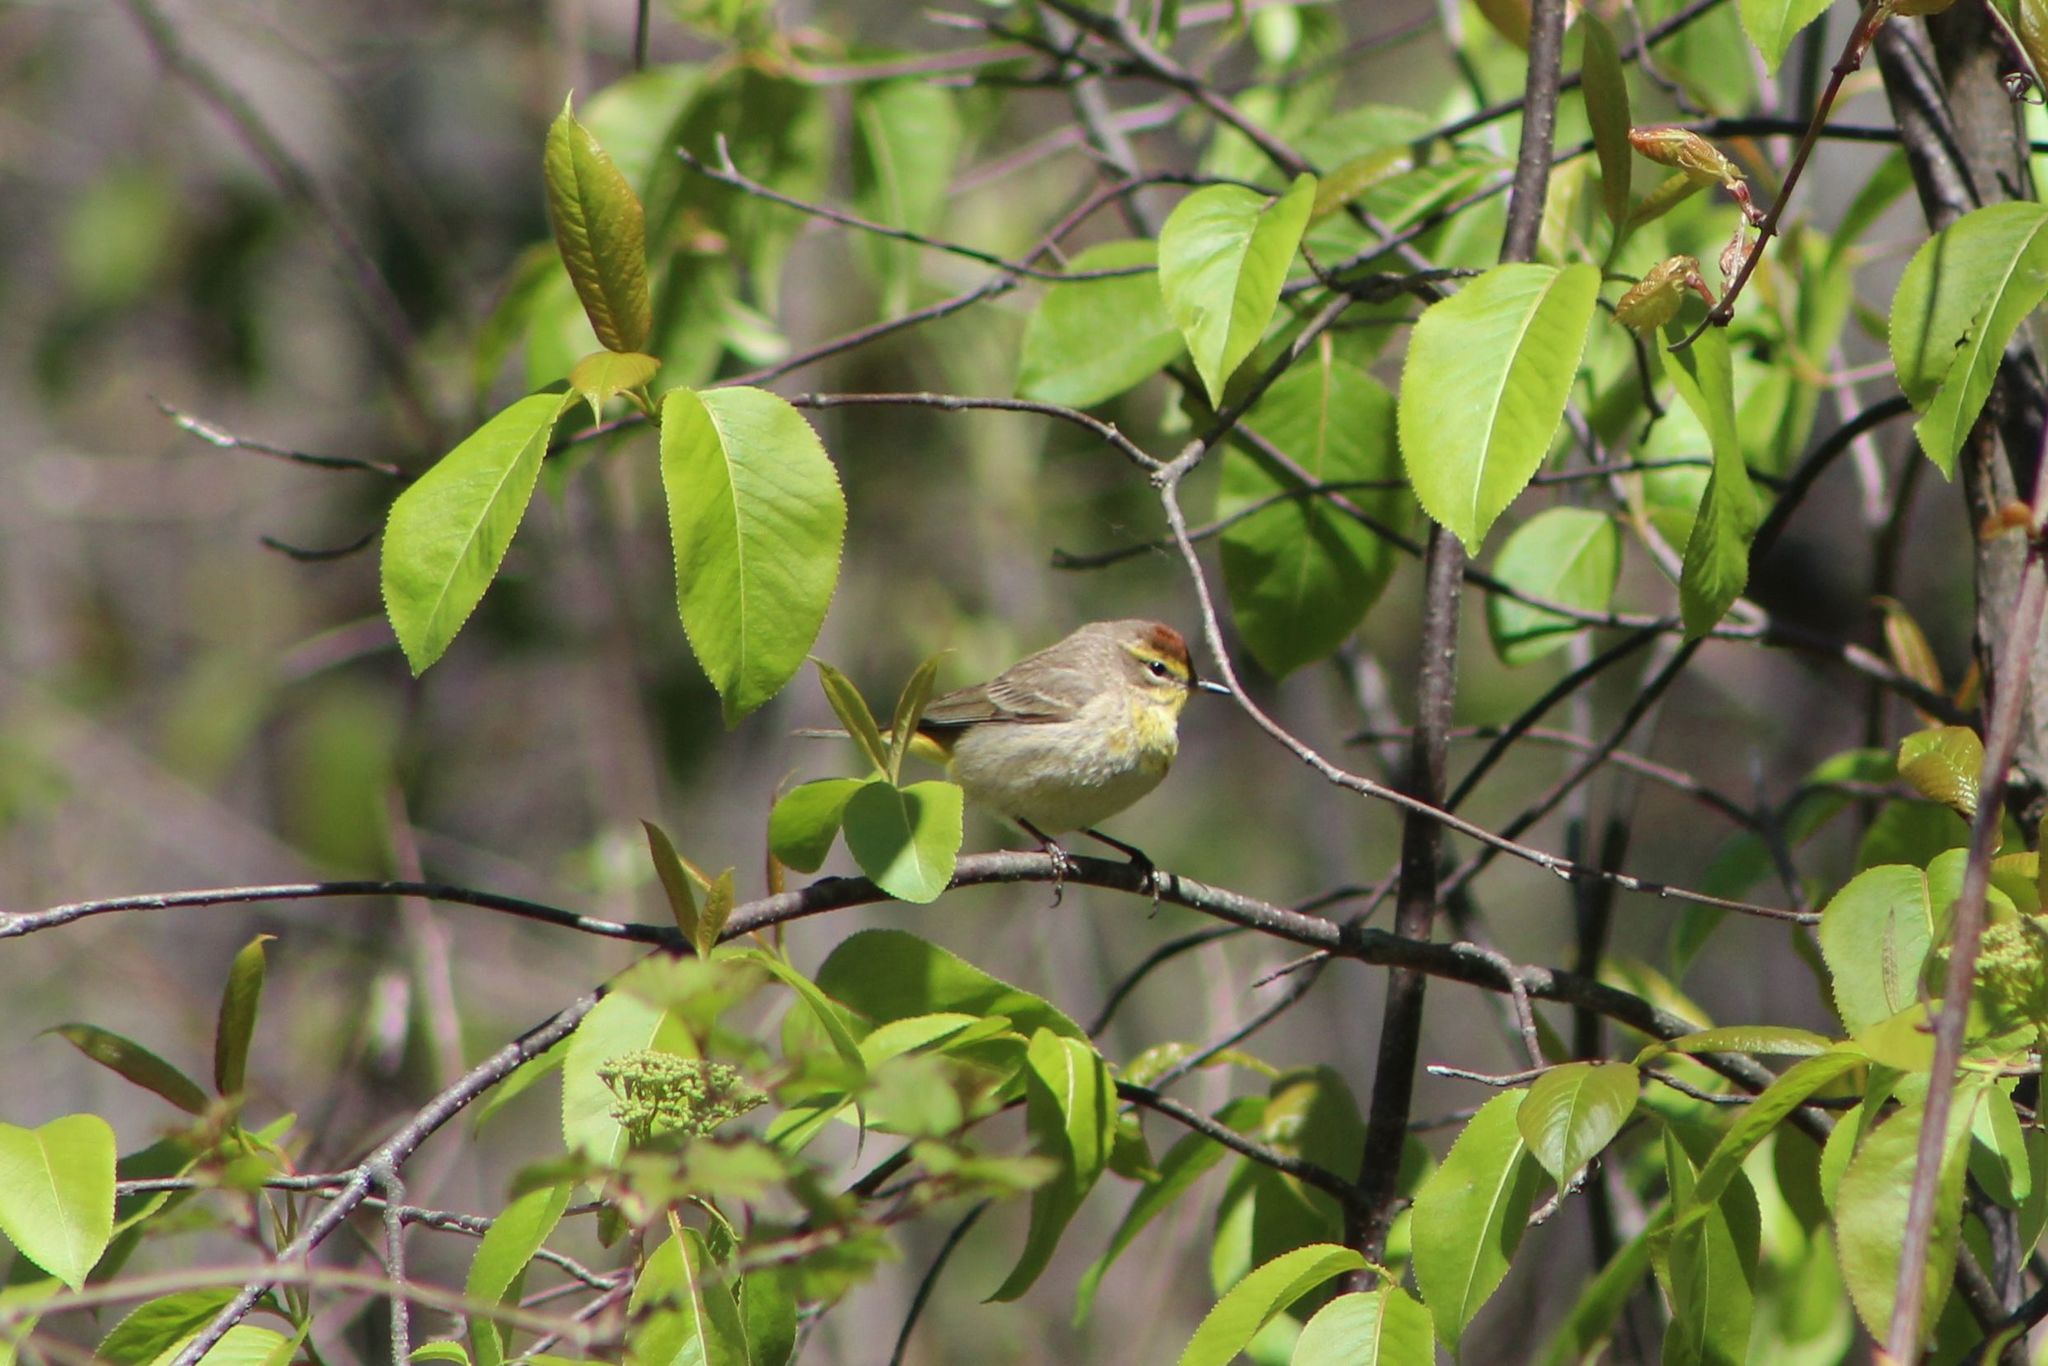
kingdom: Animalia
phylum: Chordata
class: Aves
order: Passeriformes
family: Parulidae
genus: Setophaga
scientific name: Setophaga palmarum
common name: Palm warbler
